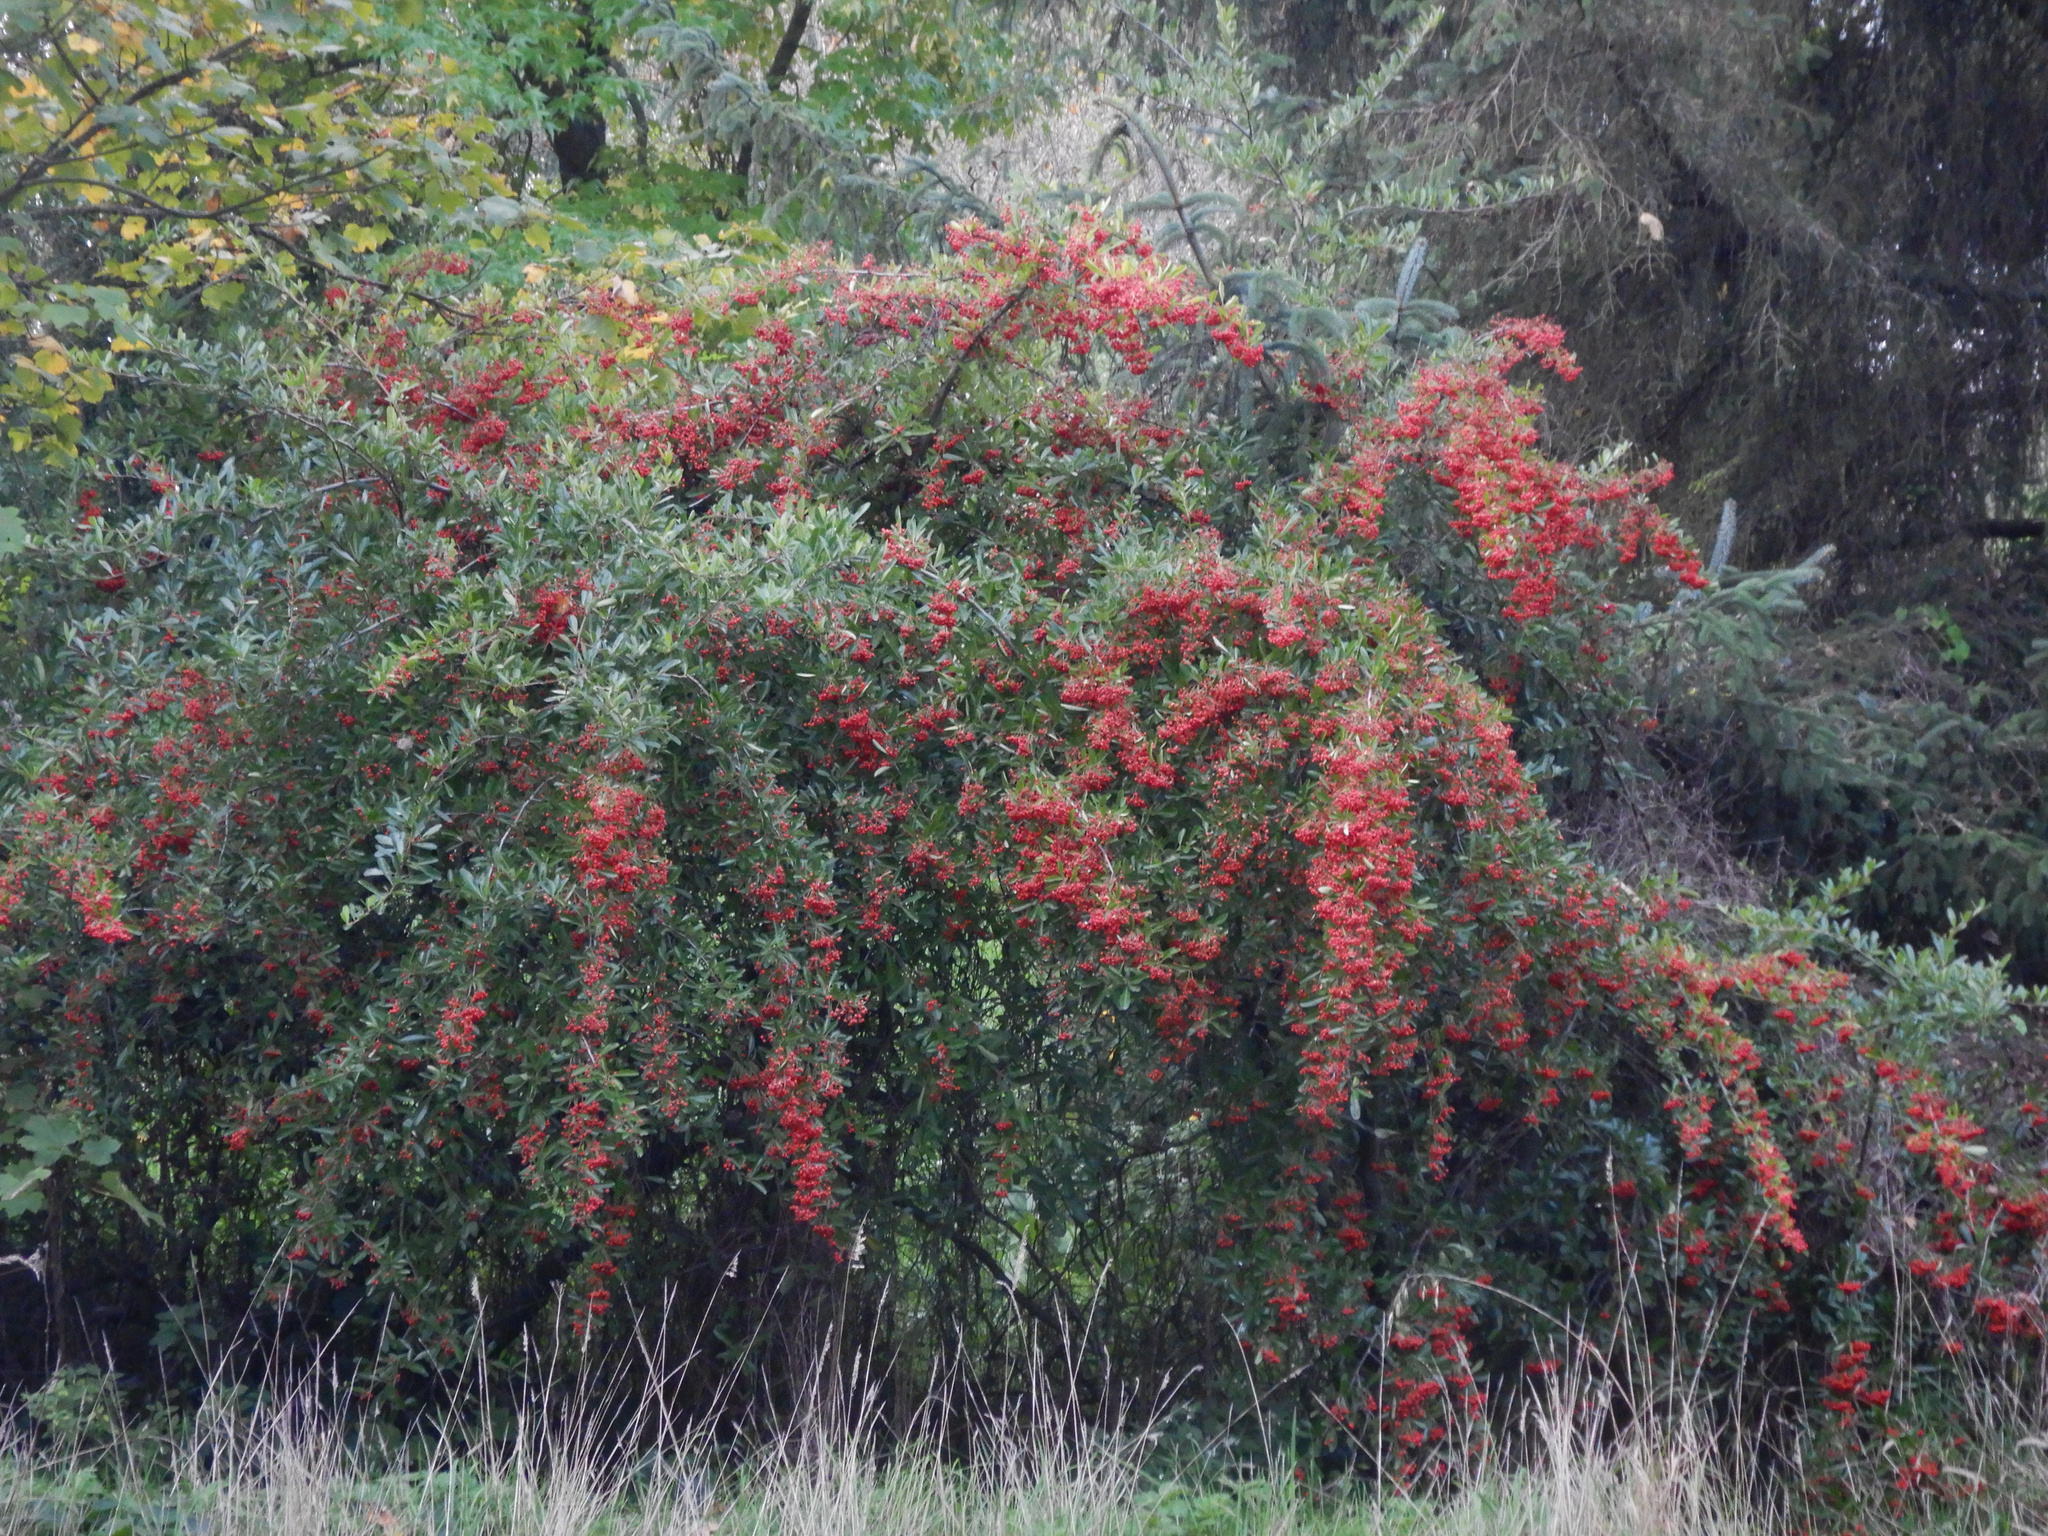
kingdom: Plantae
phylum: Tracheophyta
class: Magnoliopsida
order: Rosales
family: Rosaceae
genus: Pyracantha
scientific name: Pyracantha coccinea
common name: Firethorn
